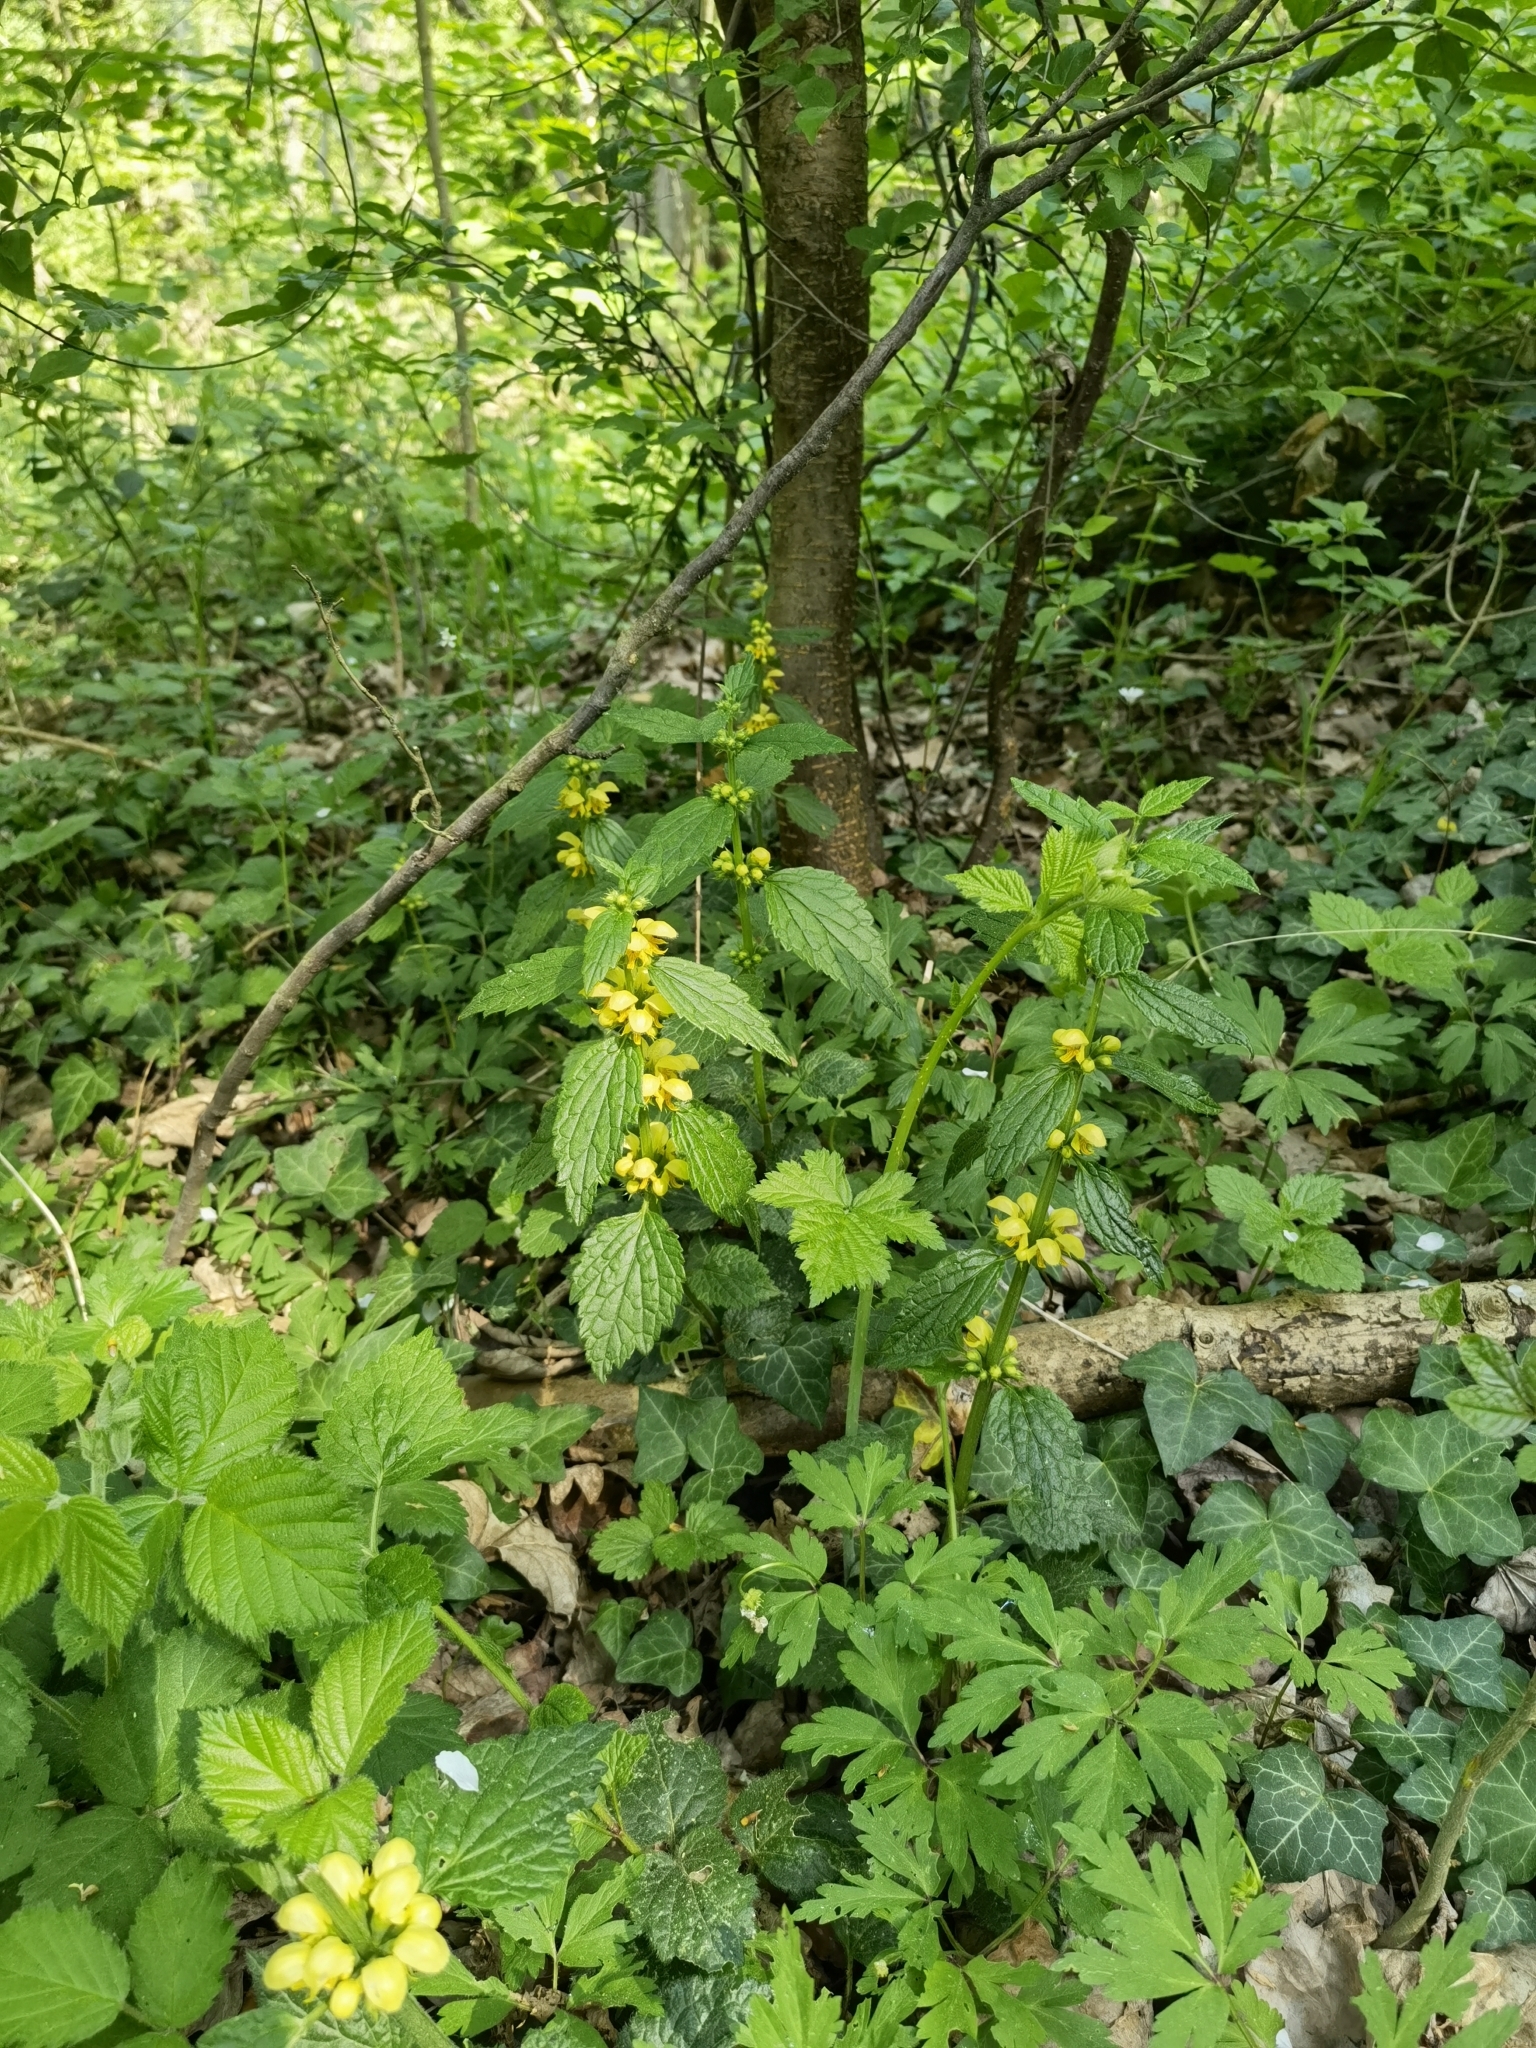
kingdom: Plantae
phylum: Tracheophyta
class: Magnoliopsida
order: Lamiales
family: Lamiaceae
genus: Lamium
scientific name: Lamium galeobdolon
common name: Yellow archangel
